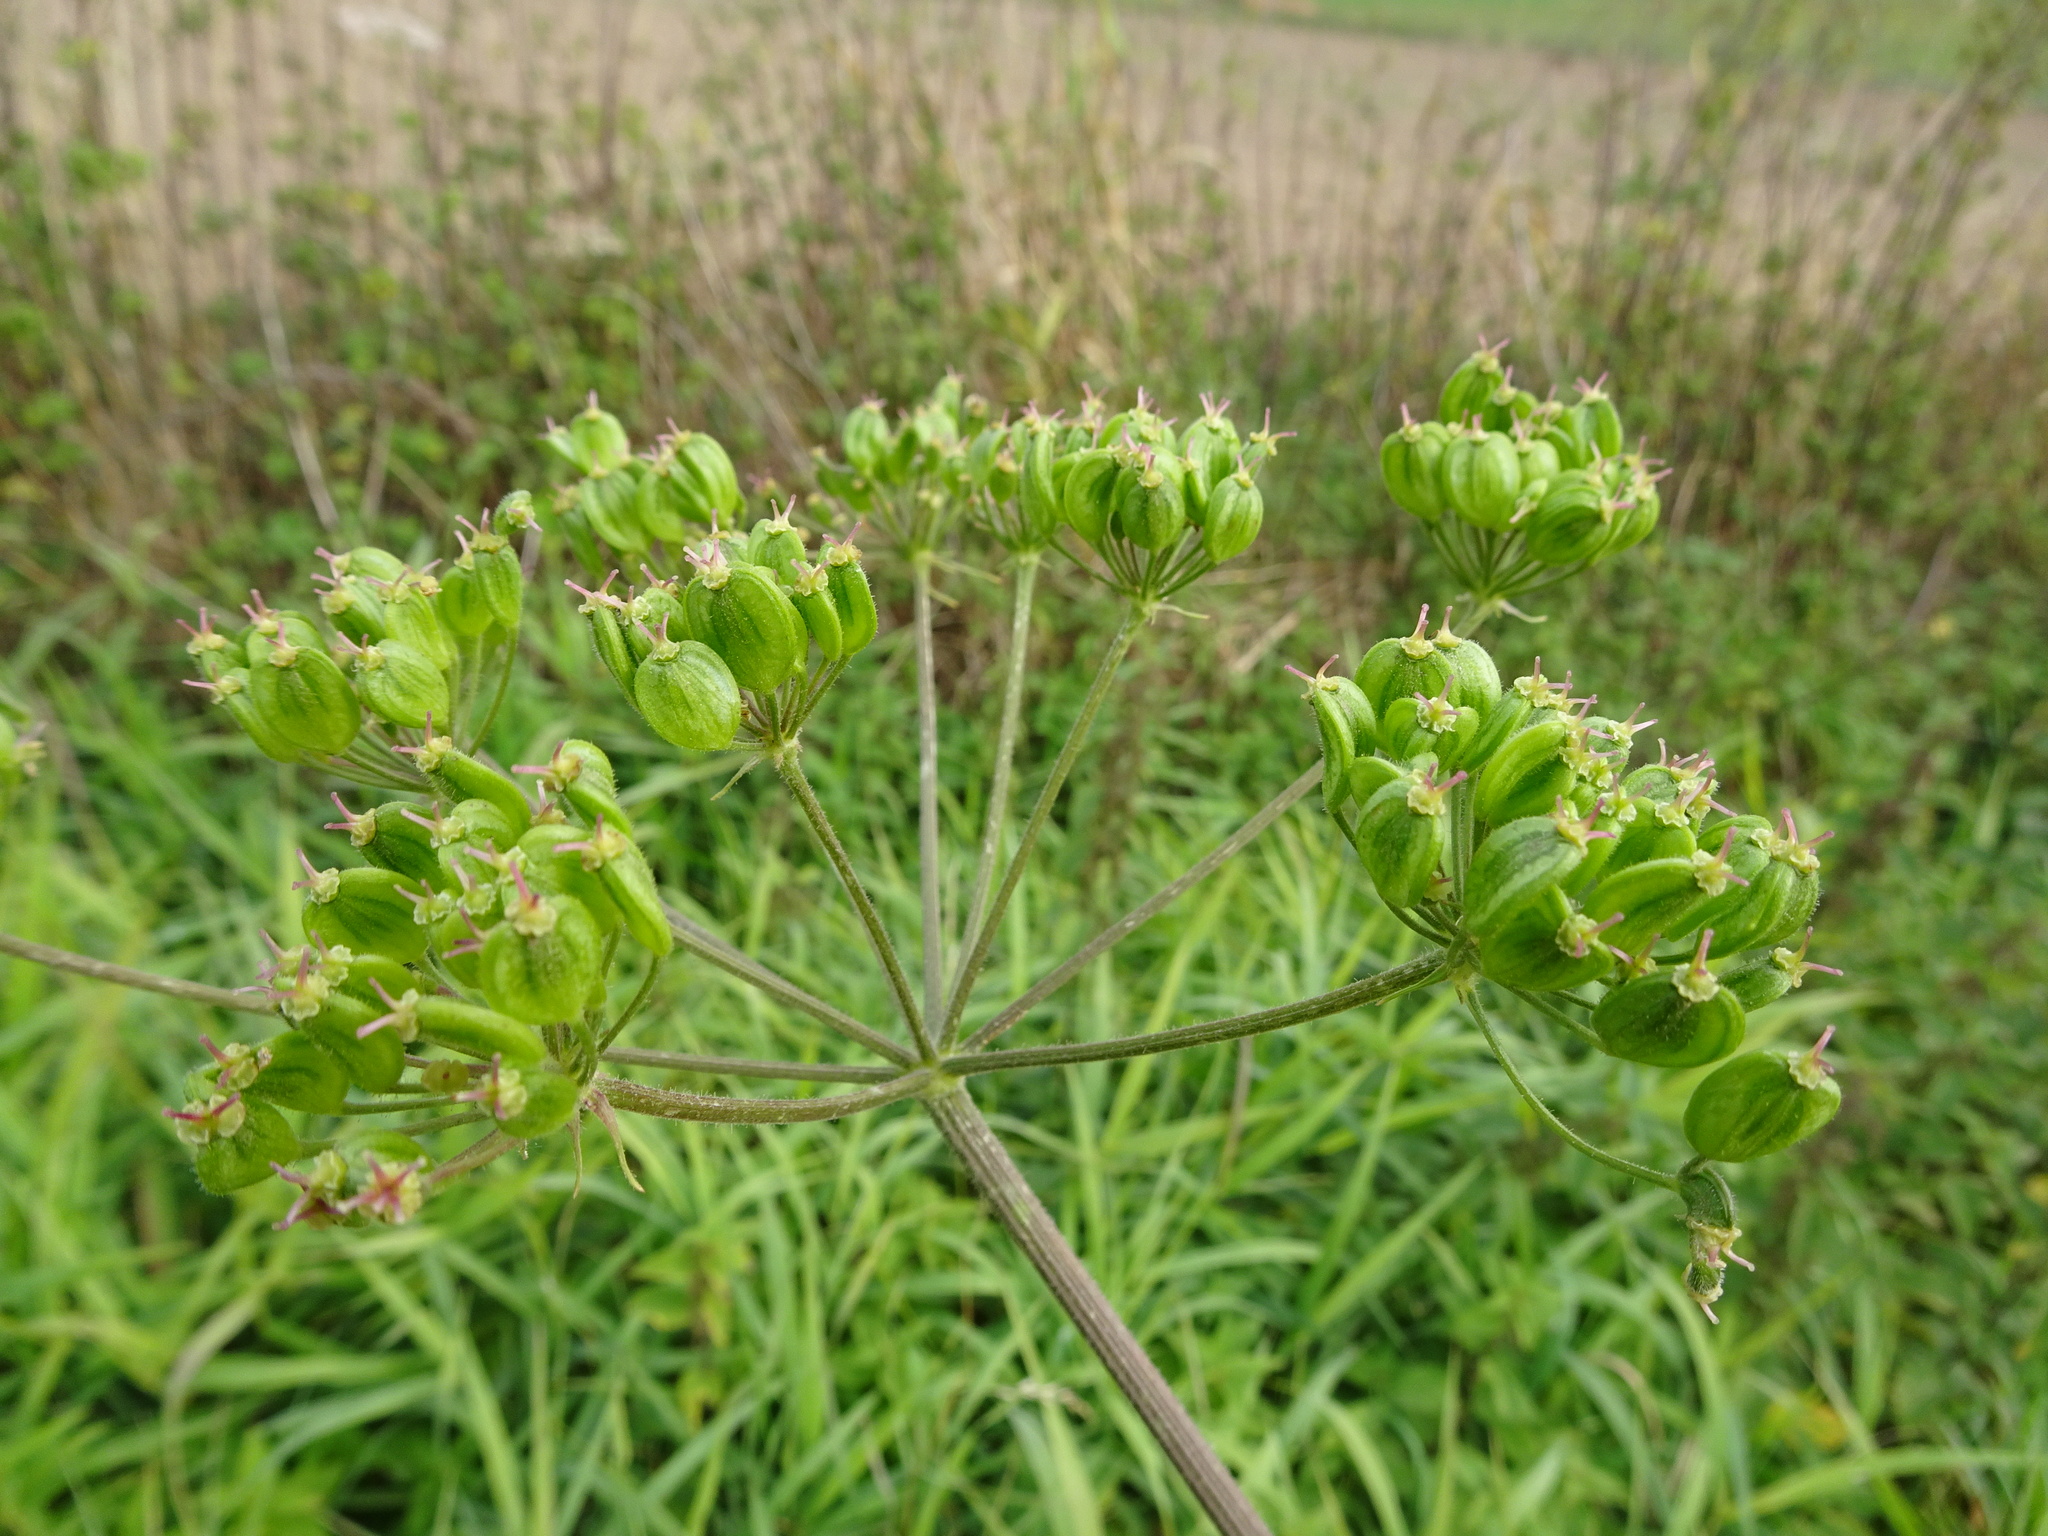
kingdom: Plantae
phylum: Tracheophyta
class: Magnoliopsida
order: Apiales
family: Apiaceae
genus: Heracleum
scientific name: Heracleum sphondylium
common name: Hogweed
